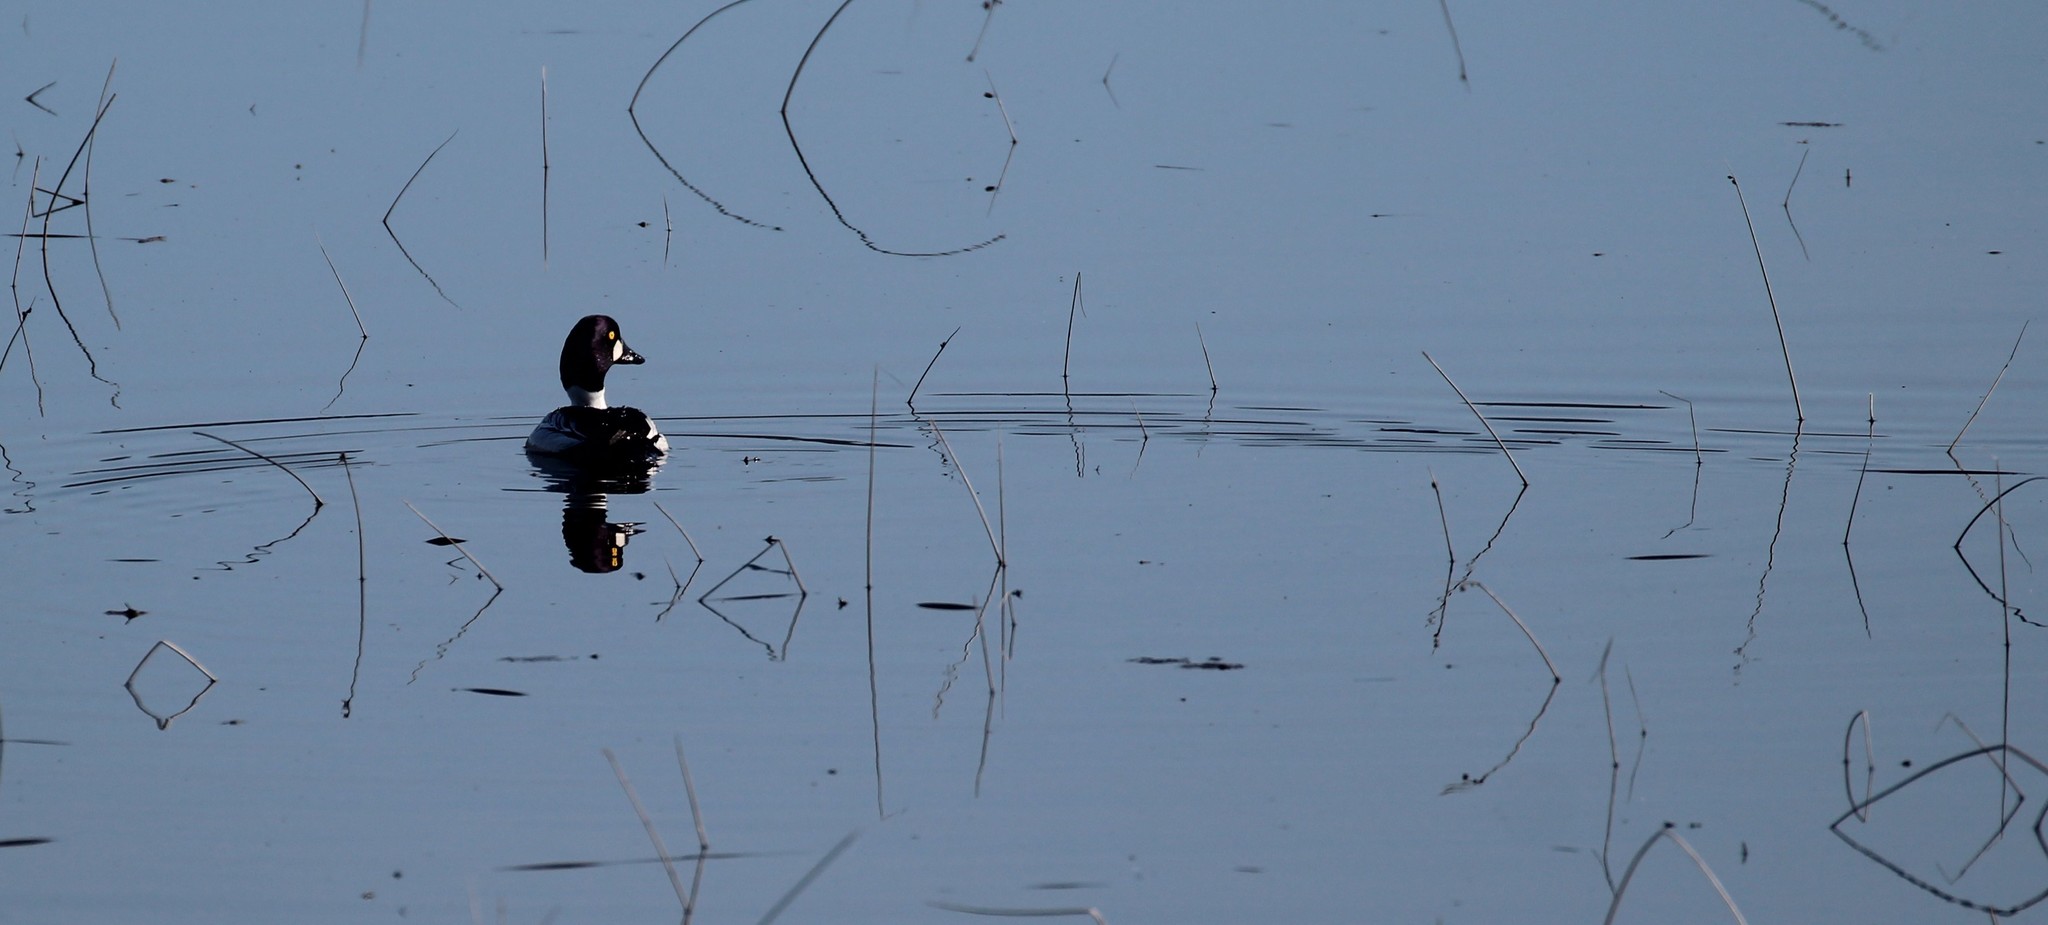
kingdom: Animalia
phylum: Chordata
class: Aves
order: Anseriformes
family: Anatidae
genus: Bucephala
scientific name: Bucephala clangula
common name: Common goldeneye
